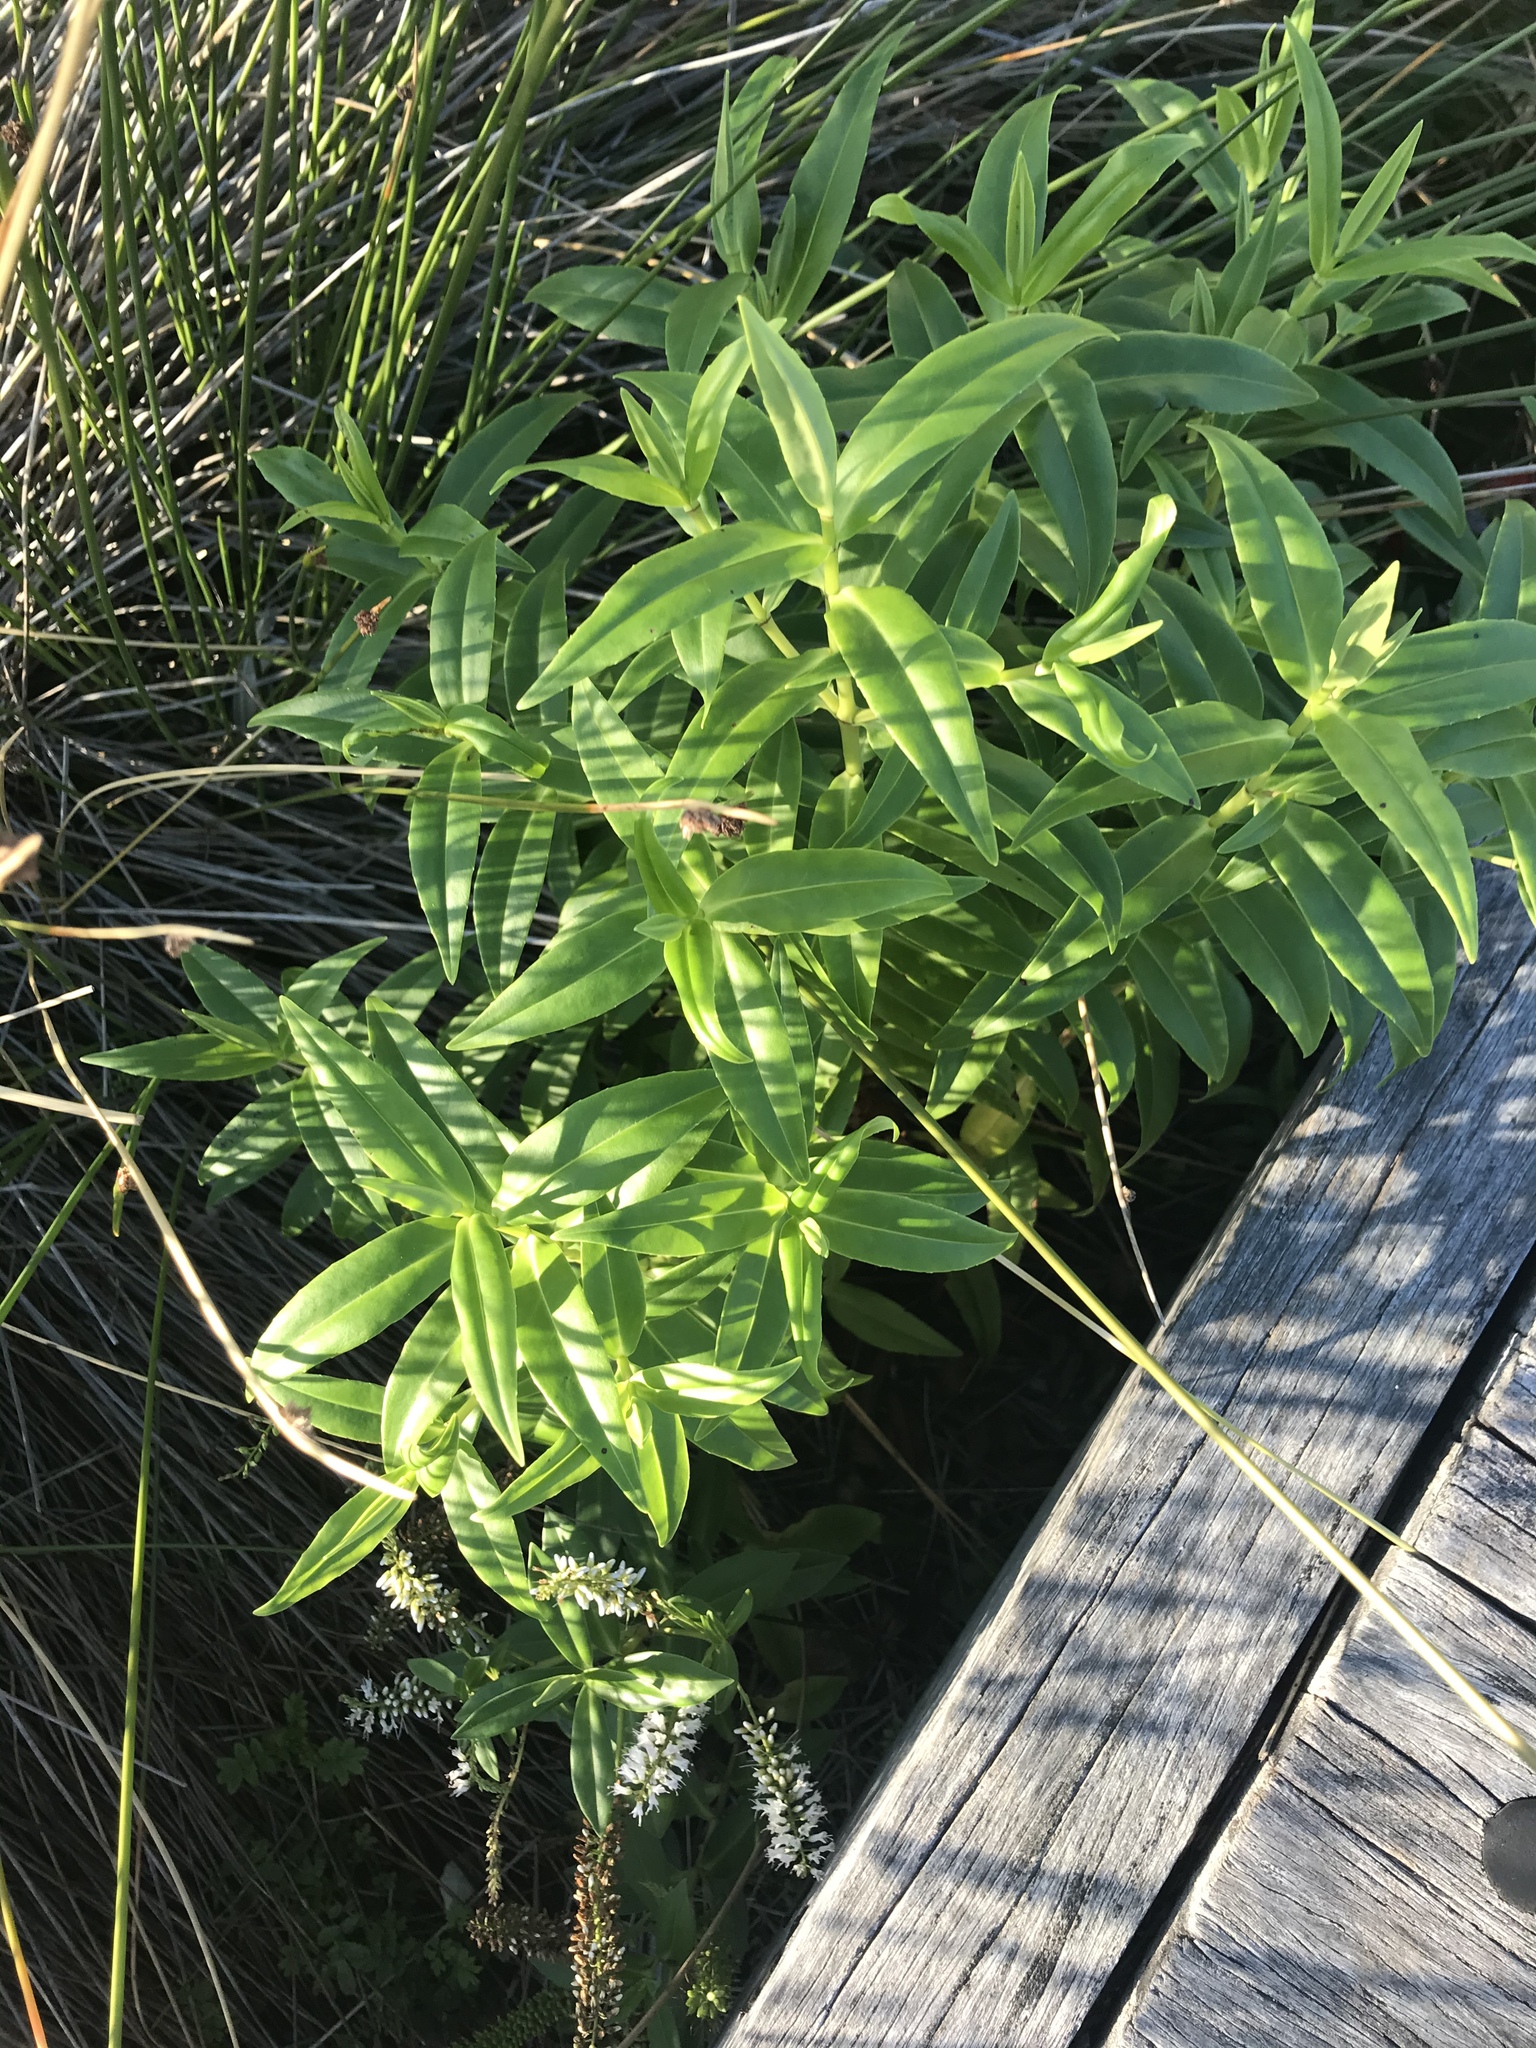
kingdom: Plantae
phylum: Tracheophyta
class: Magnoliopsida
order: Lamiales
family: Plantaginaceae
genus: Veronica
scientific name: Veronica stricta
